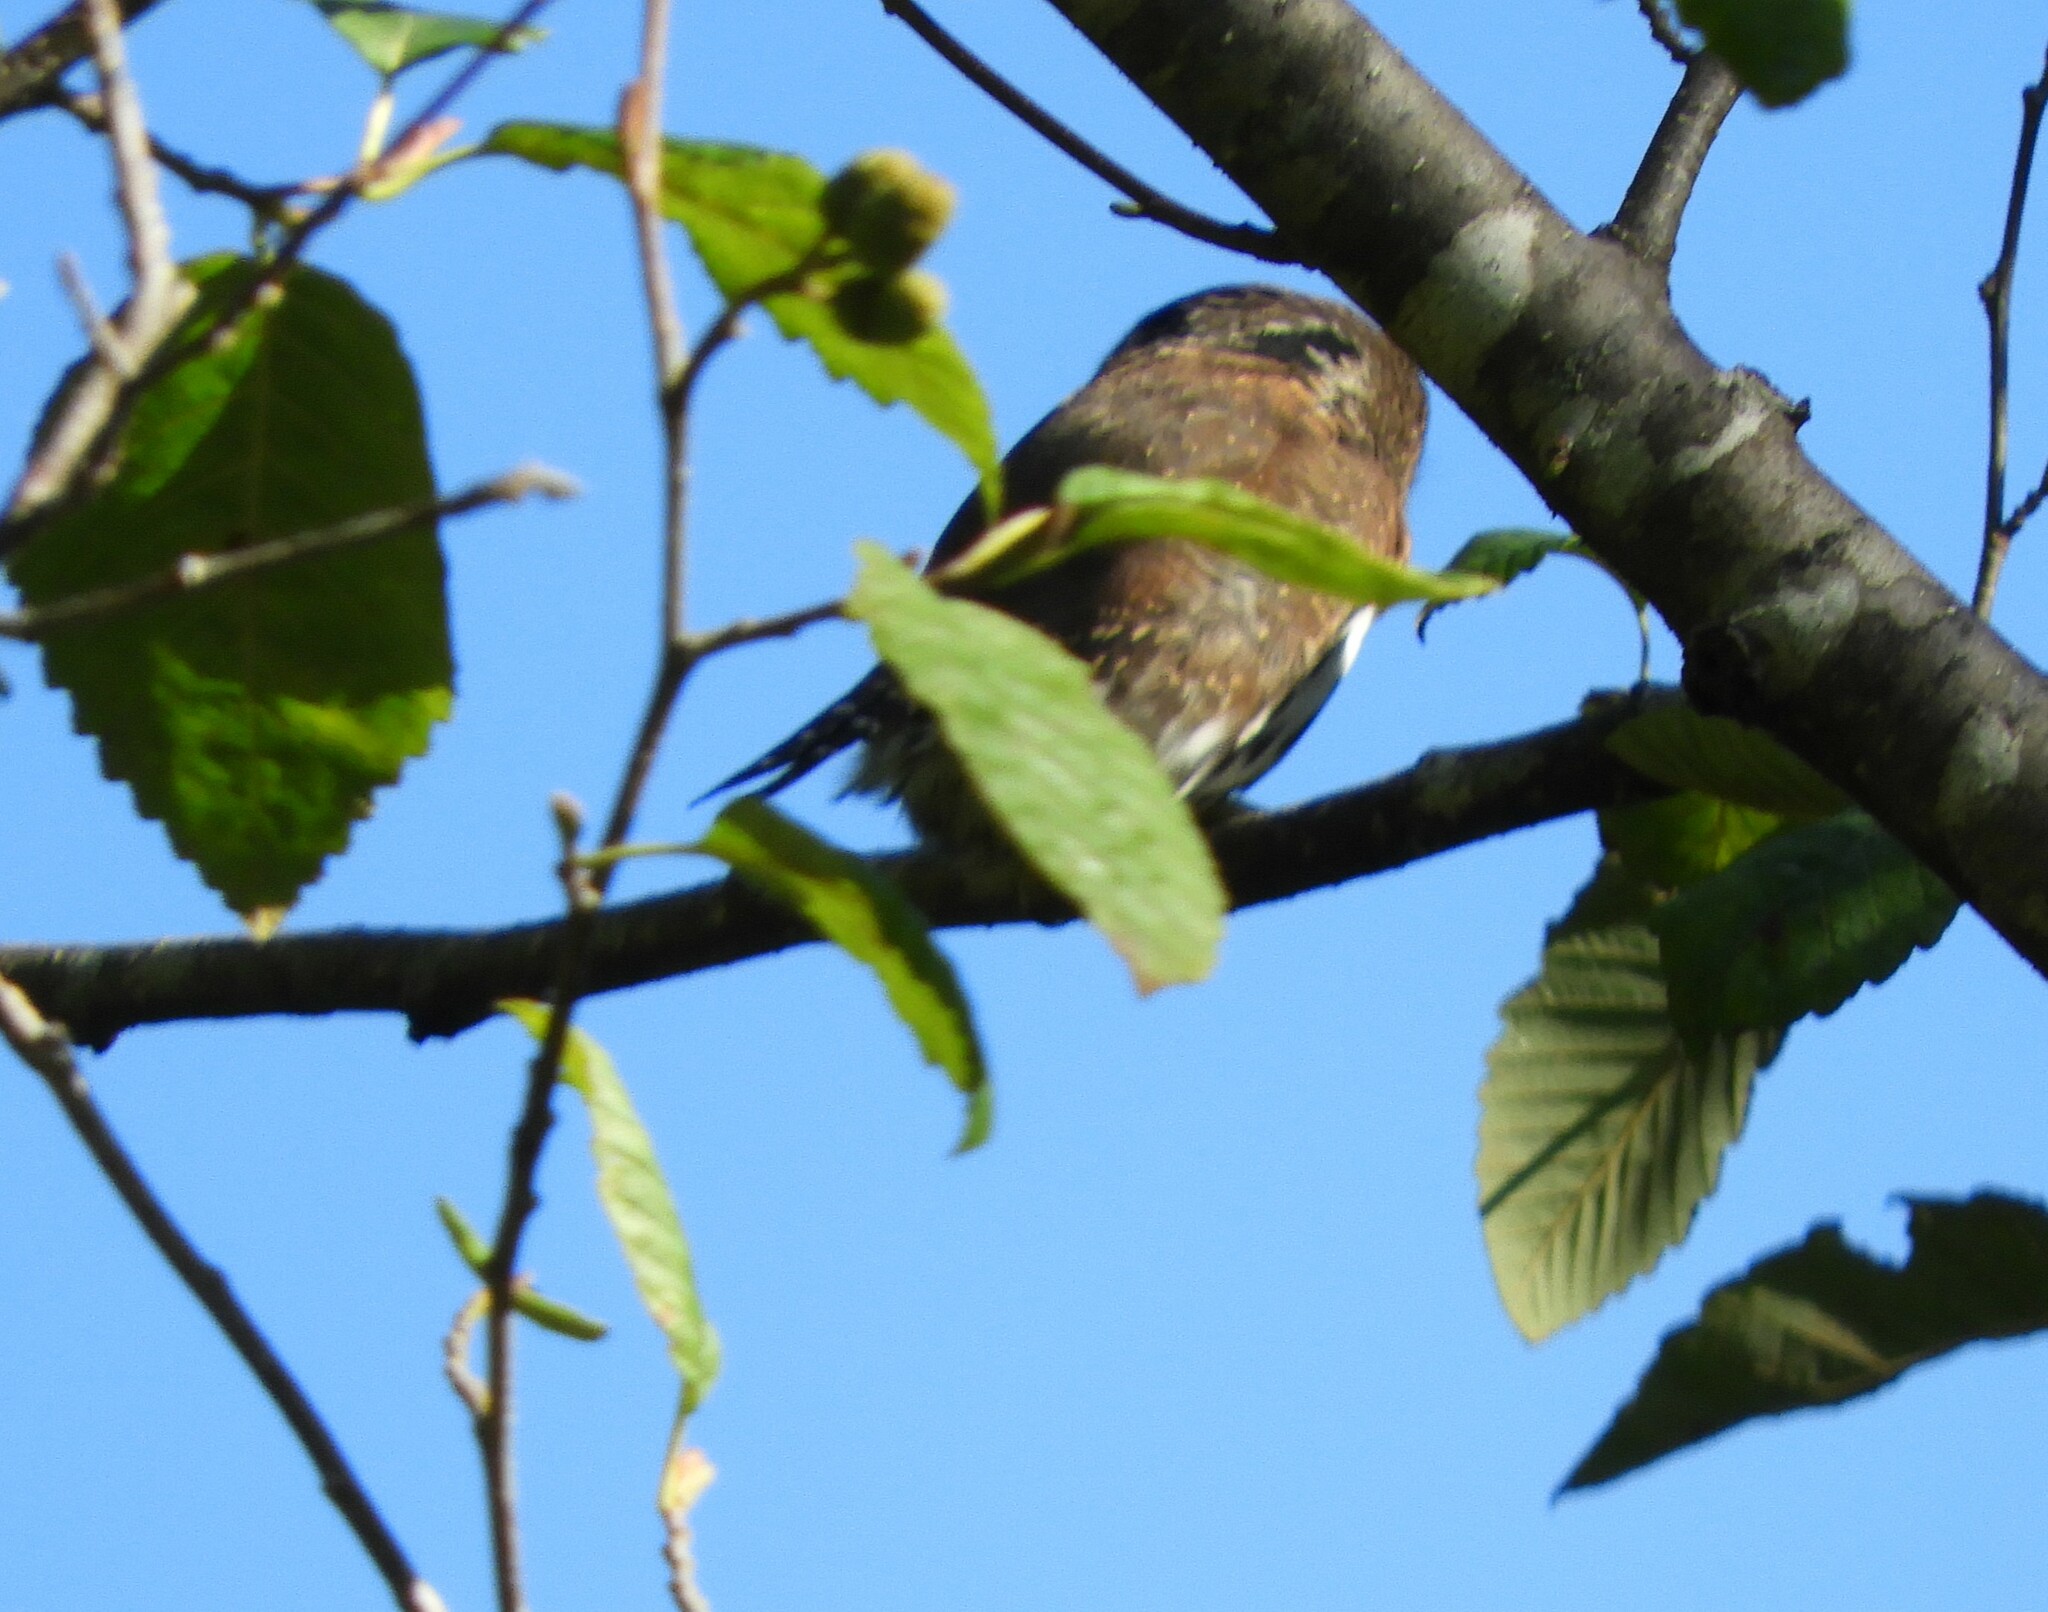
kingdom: Animalia
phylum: Chordata
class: Aves
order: Strigiformes
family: Strigidae
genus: Glaucidium
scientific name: Glaucidium gnoma
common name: Northern pygmy-owl
